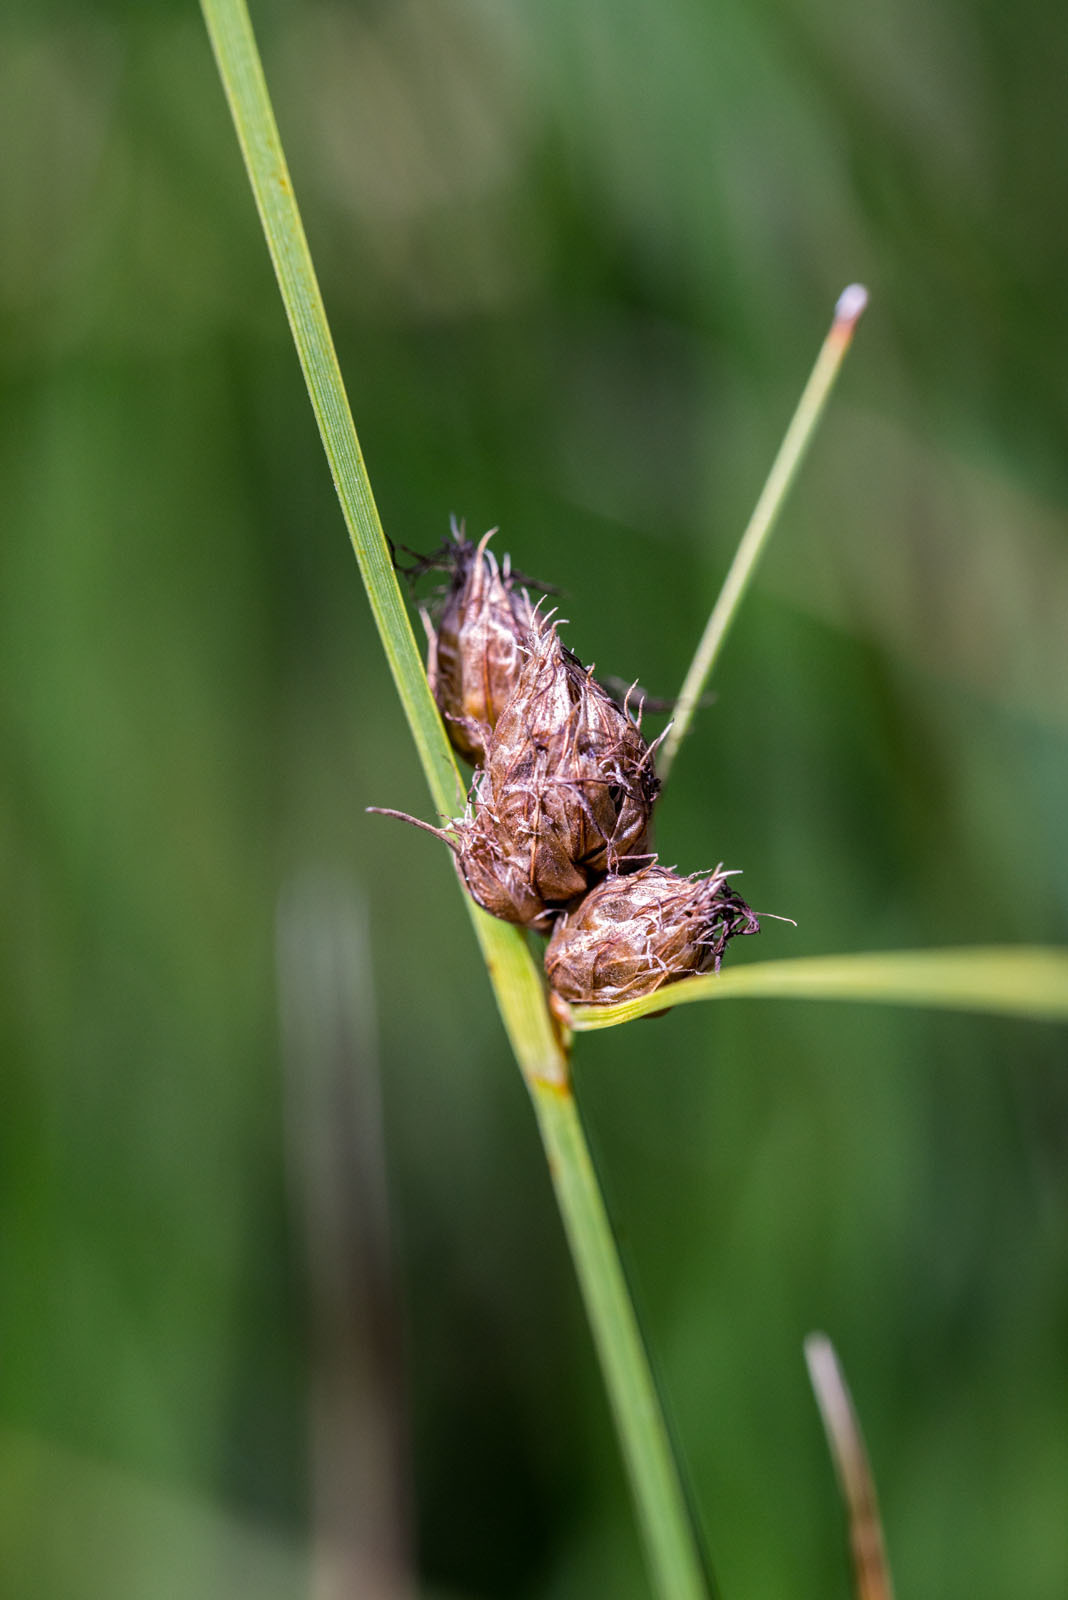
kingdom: Plantae
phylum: Tracheophyta
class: Liliopsida
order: Poales
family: Cyperaceae
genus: Bolboschoenus
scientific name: Bolboschoenus caldwellii
